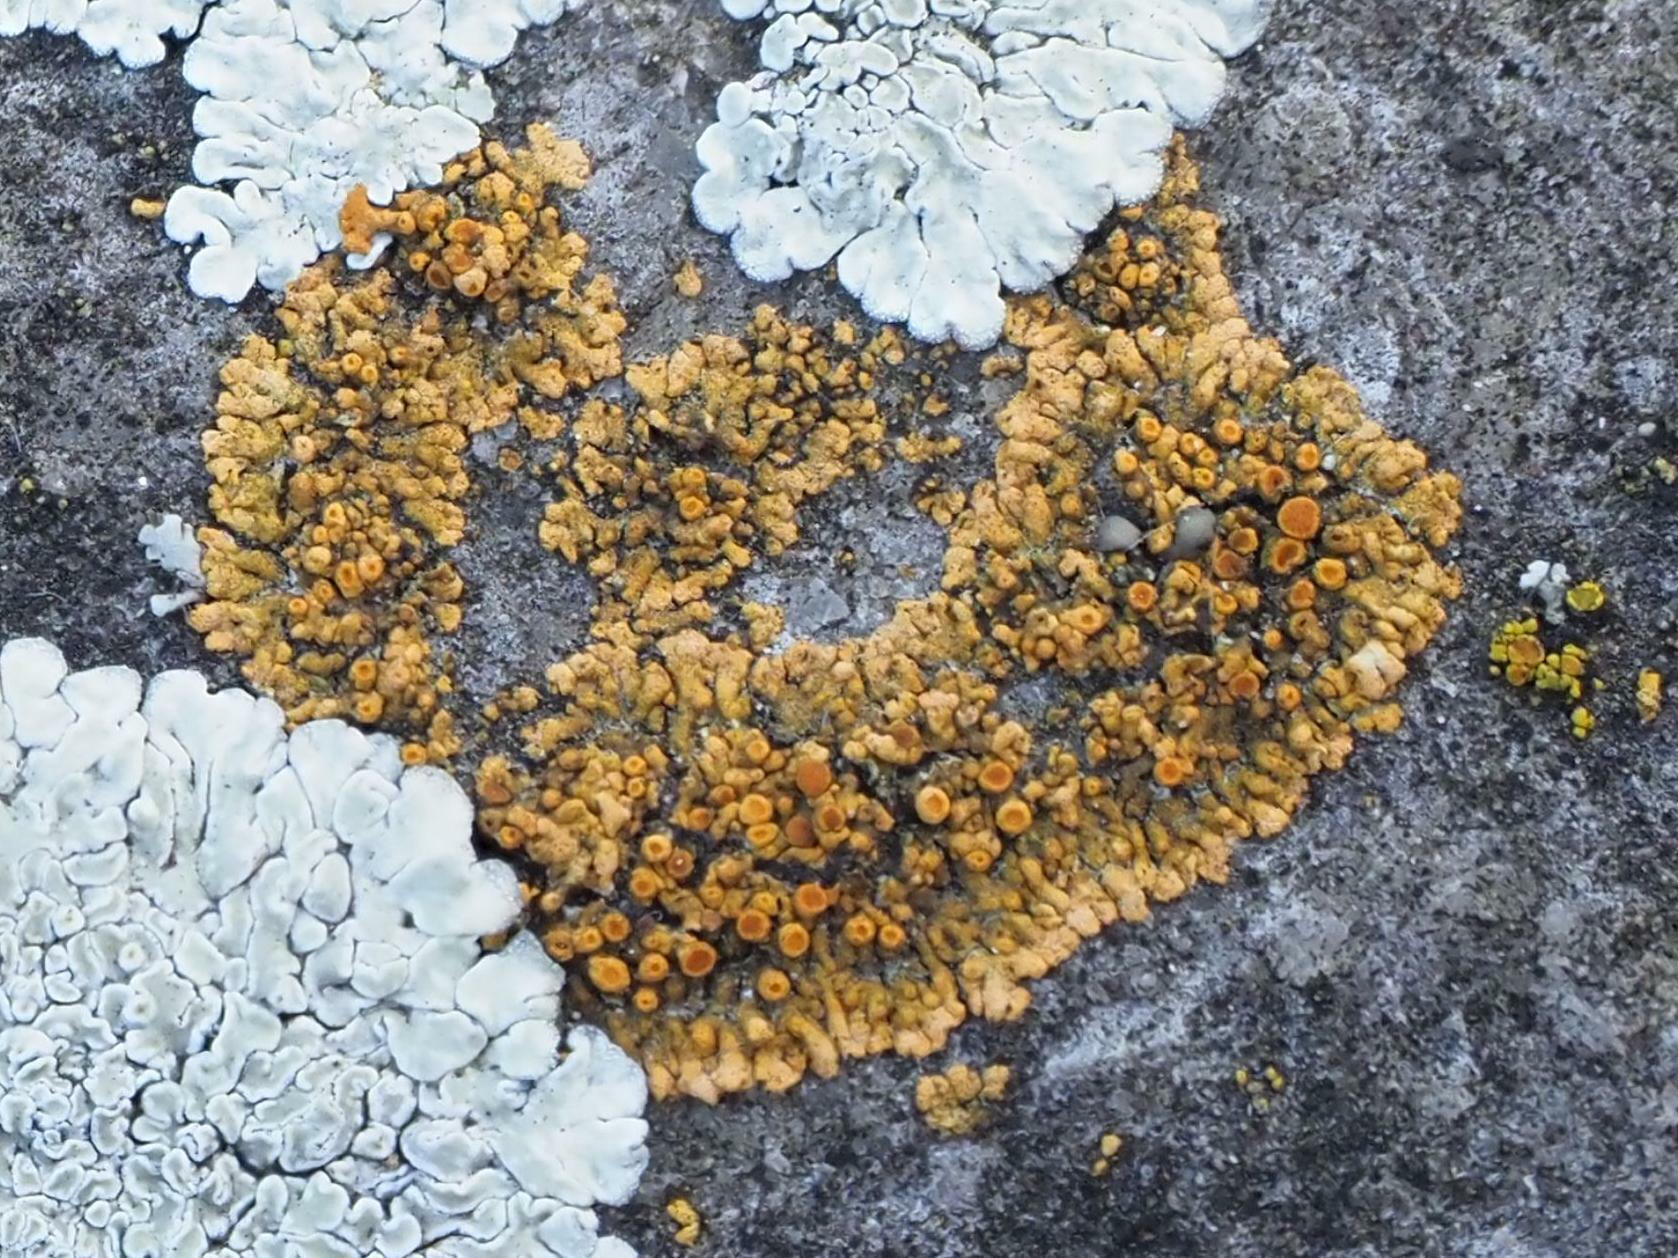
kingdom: Fungi
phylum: Ascomycota
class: Lecanoromycetes
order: Teloschistales
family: Teloschistaceae
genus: Calogaya
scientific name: Calogaya pusilla
